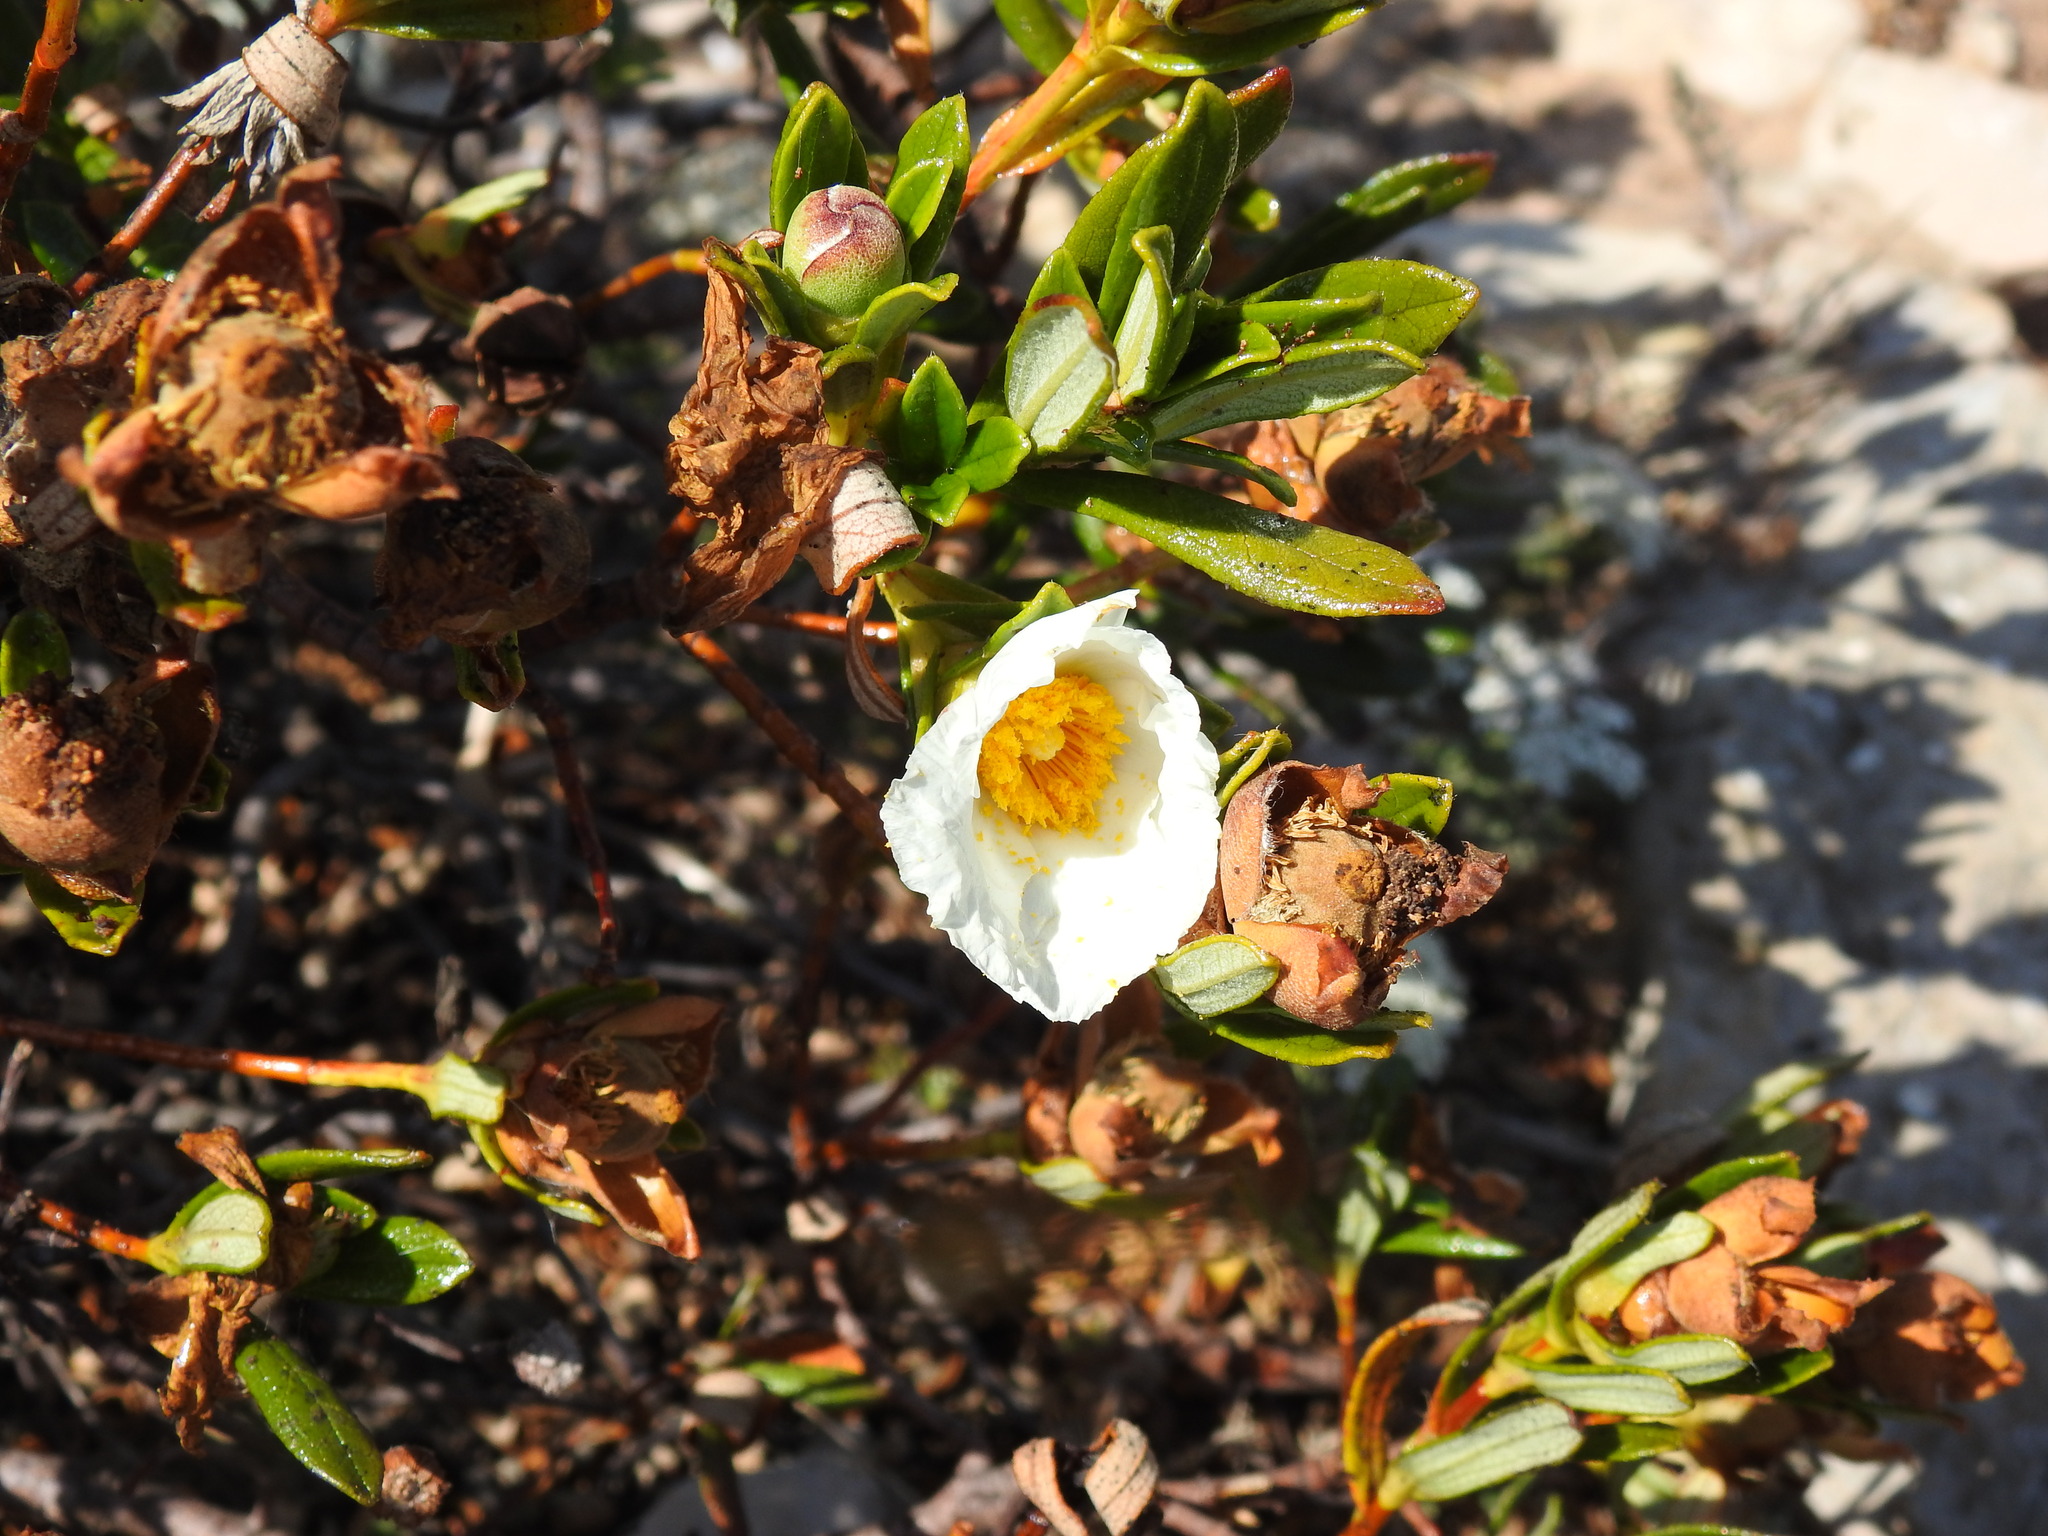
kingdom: Plantae
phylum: Tracheophyta
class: Magnoliopsida
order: Malvales
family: Cistaceae
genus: Cistus
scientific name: Cistus ladanifer
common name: Common gum cistus
